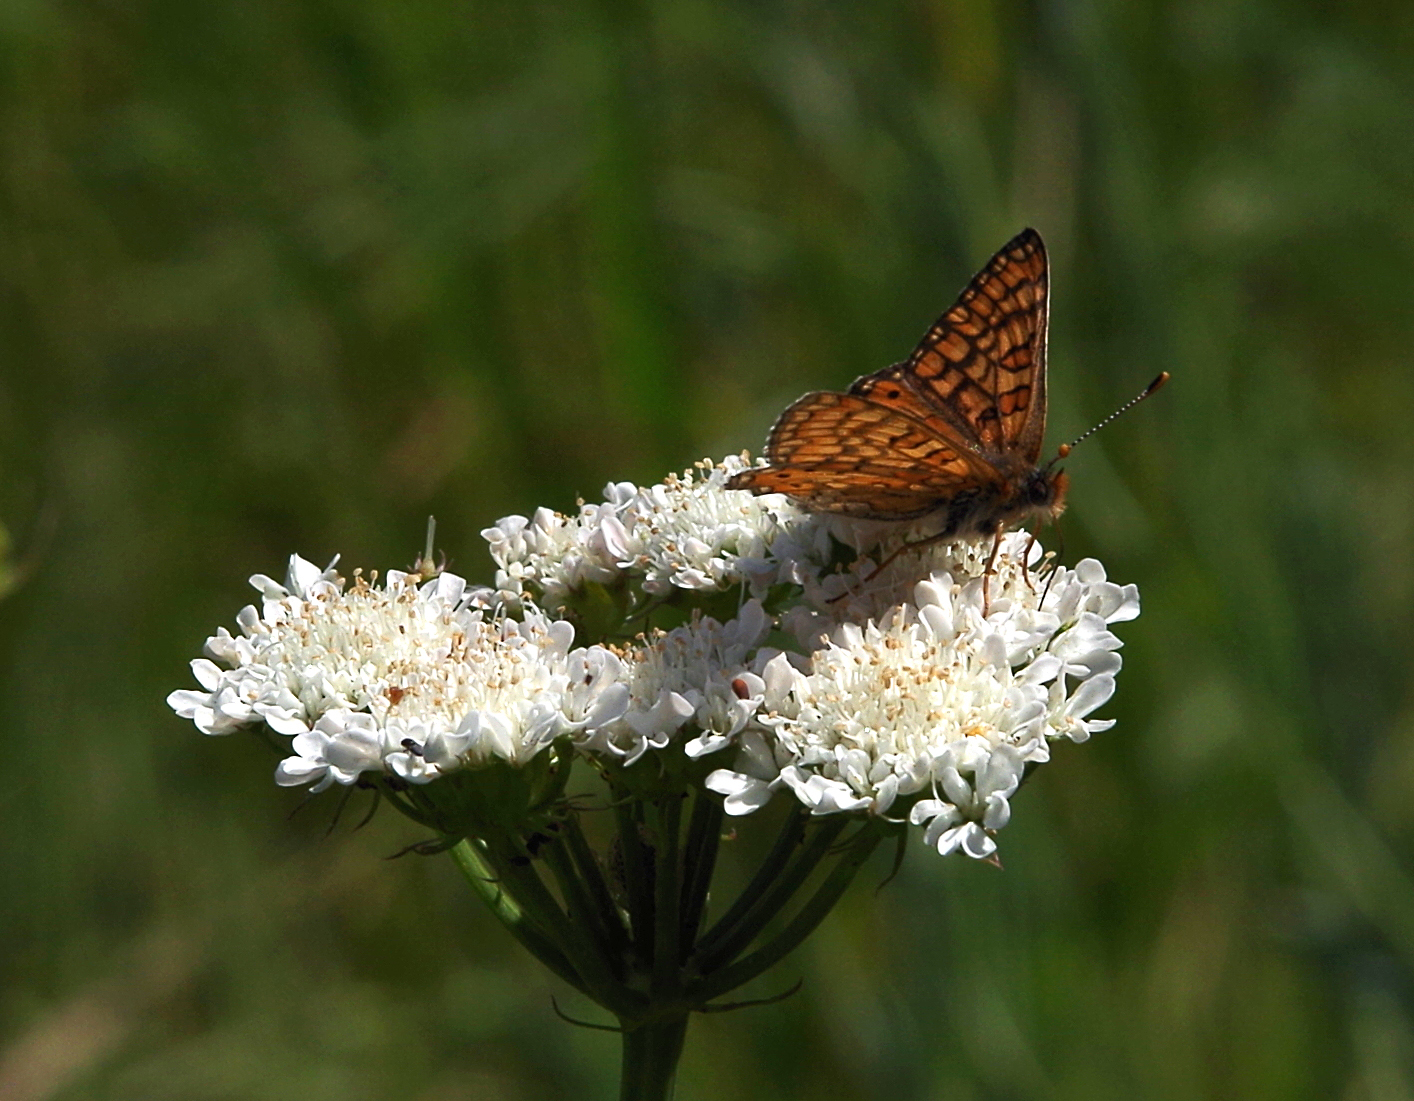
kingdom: Animalia
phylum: Arthropoda
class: Insecta
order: Lepidoptera
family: Nymphalidae
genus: Euphydryas
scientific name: Euphydryas aurinia
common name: Marsh fritillary
